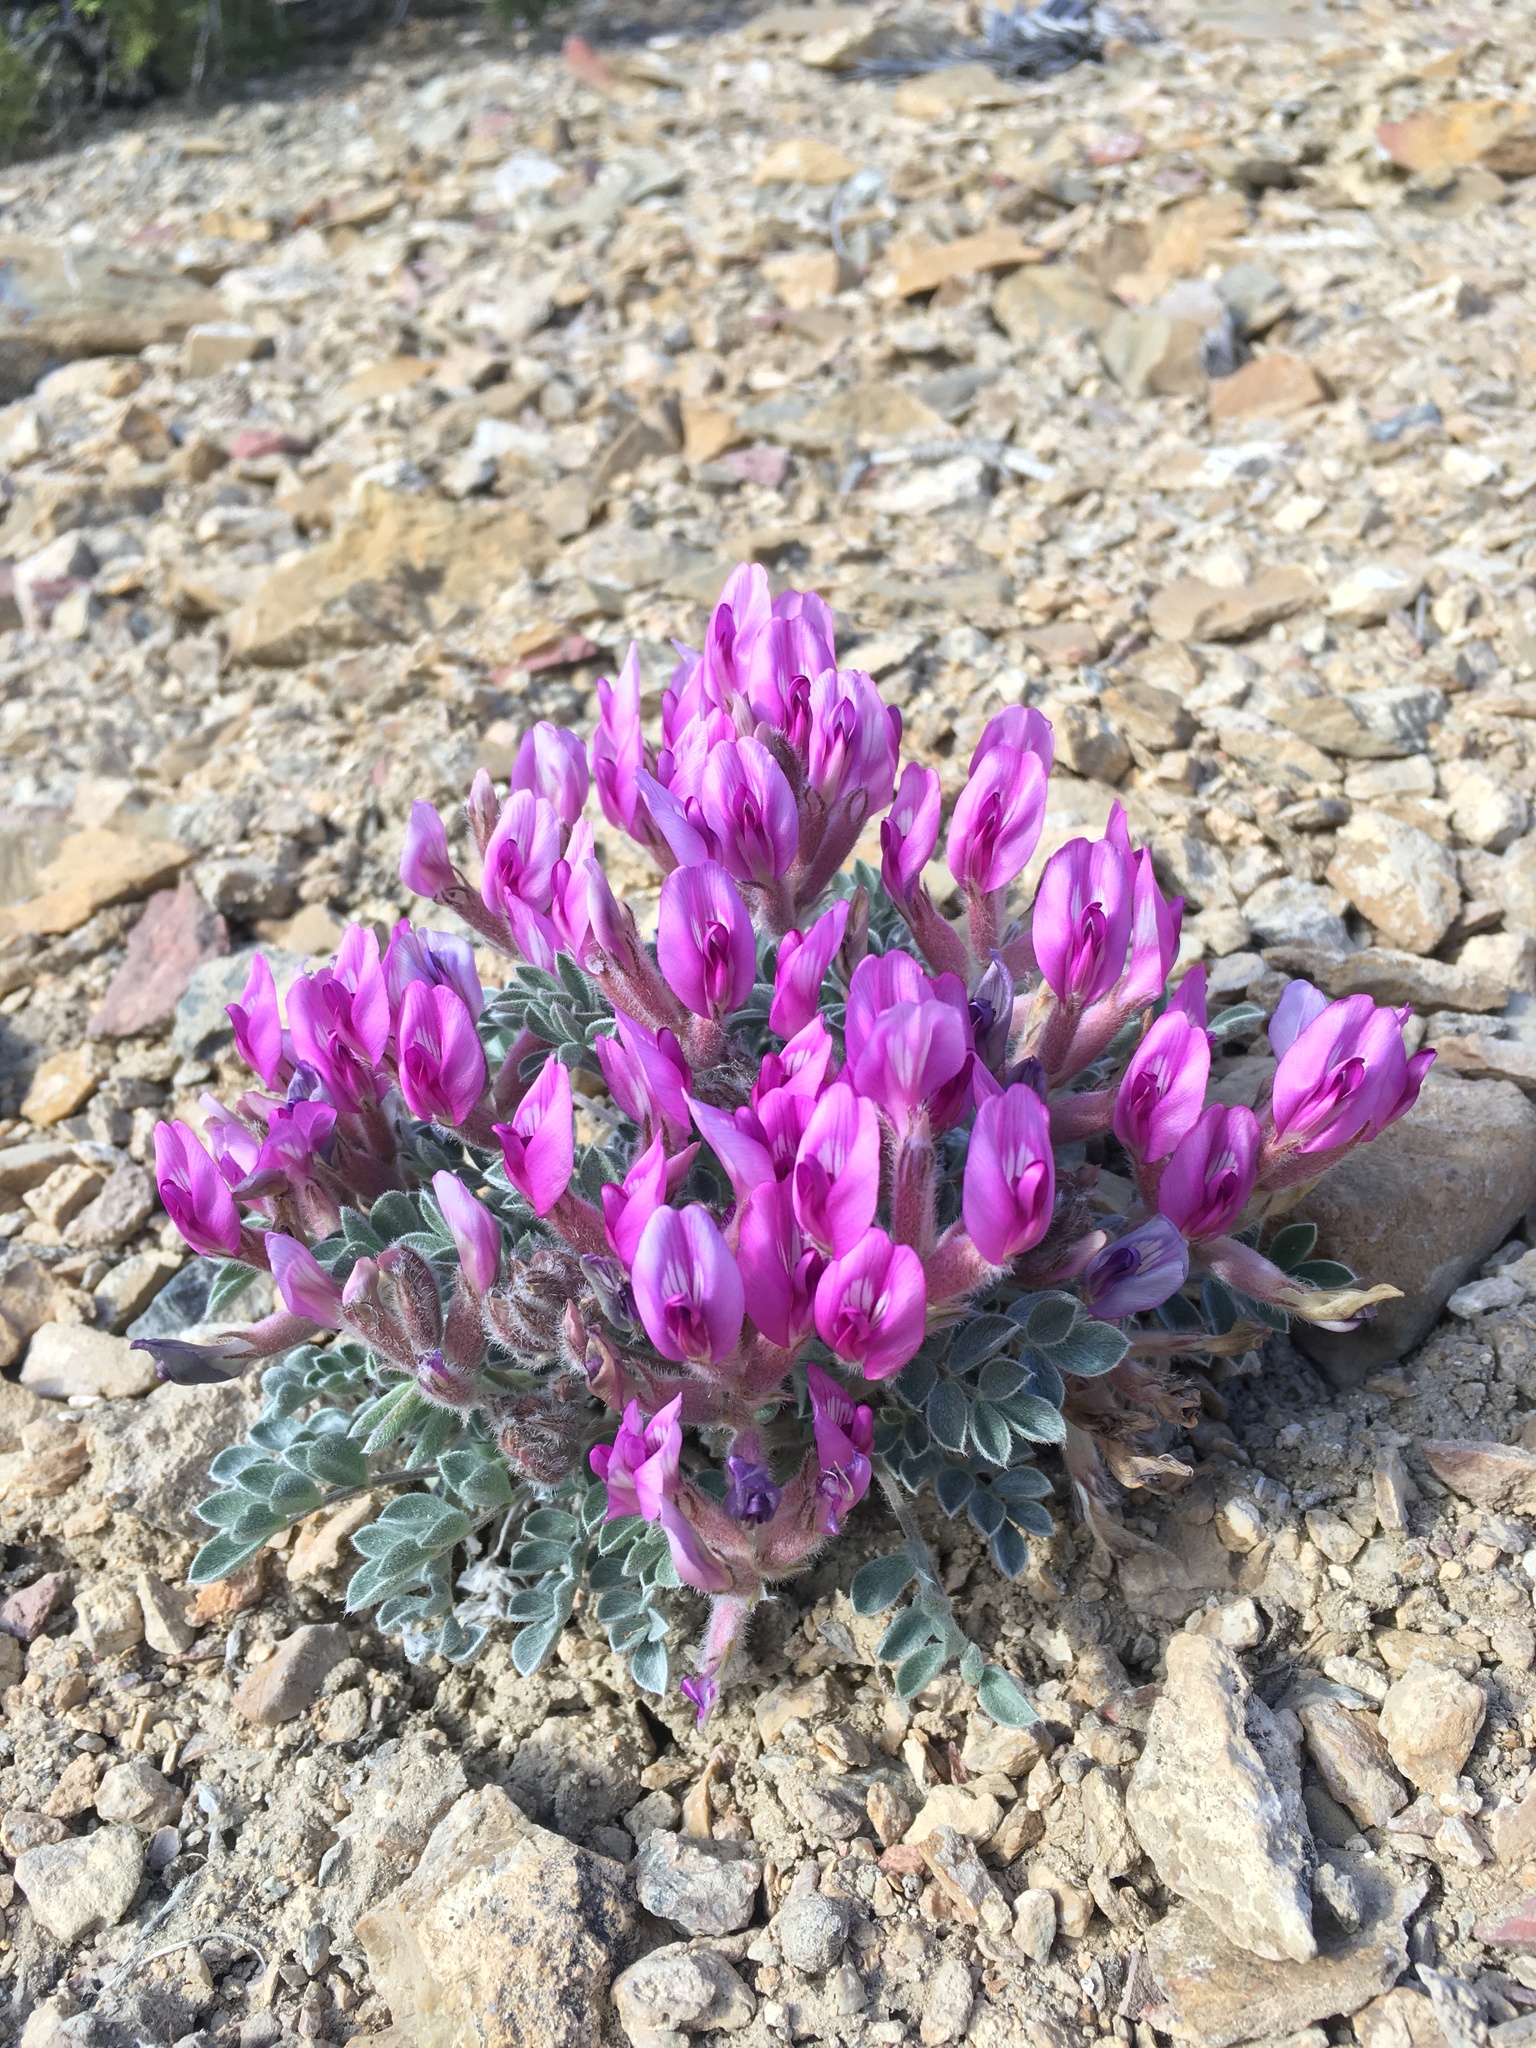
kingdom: Plantae
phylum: Tracheophyta
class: Magnoliopsida
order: Fabales
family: Fabaceae
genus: Astragalus
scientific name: Astragalus newberryi
